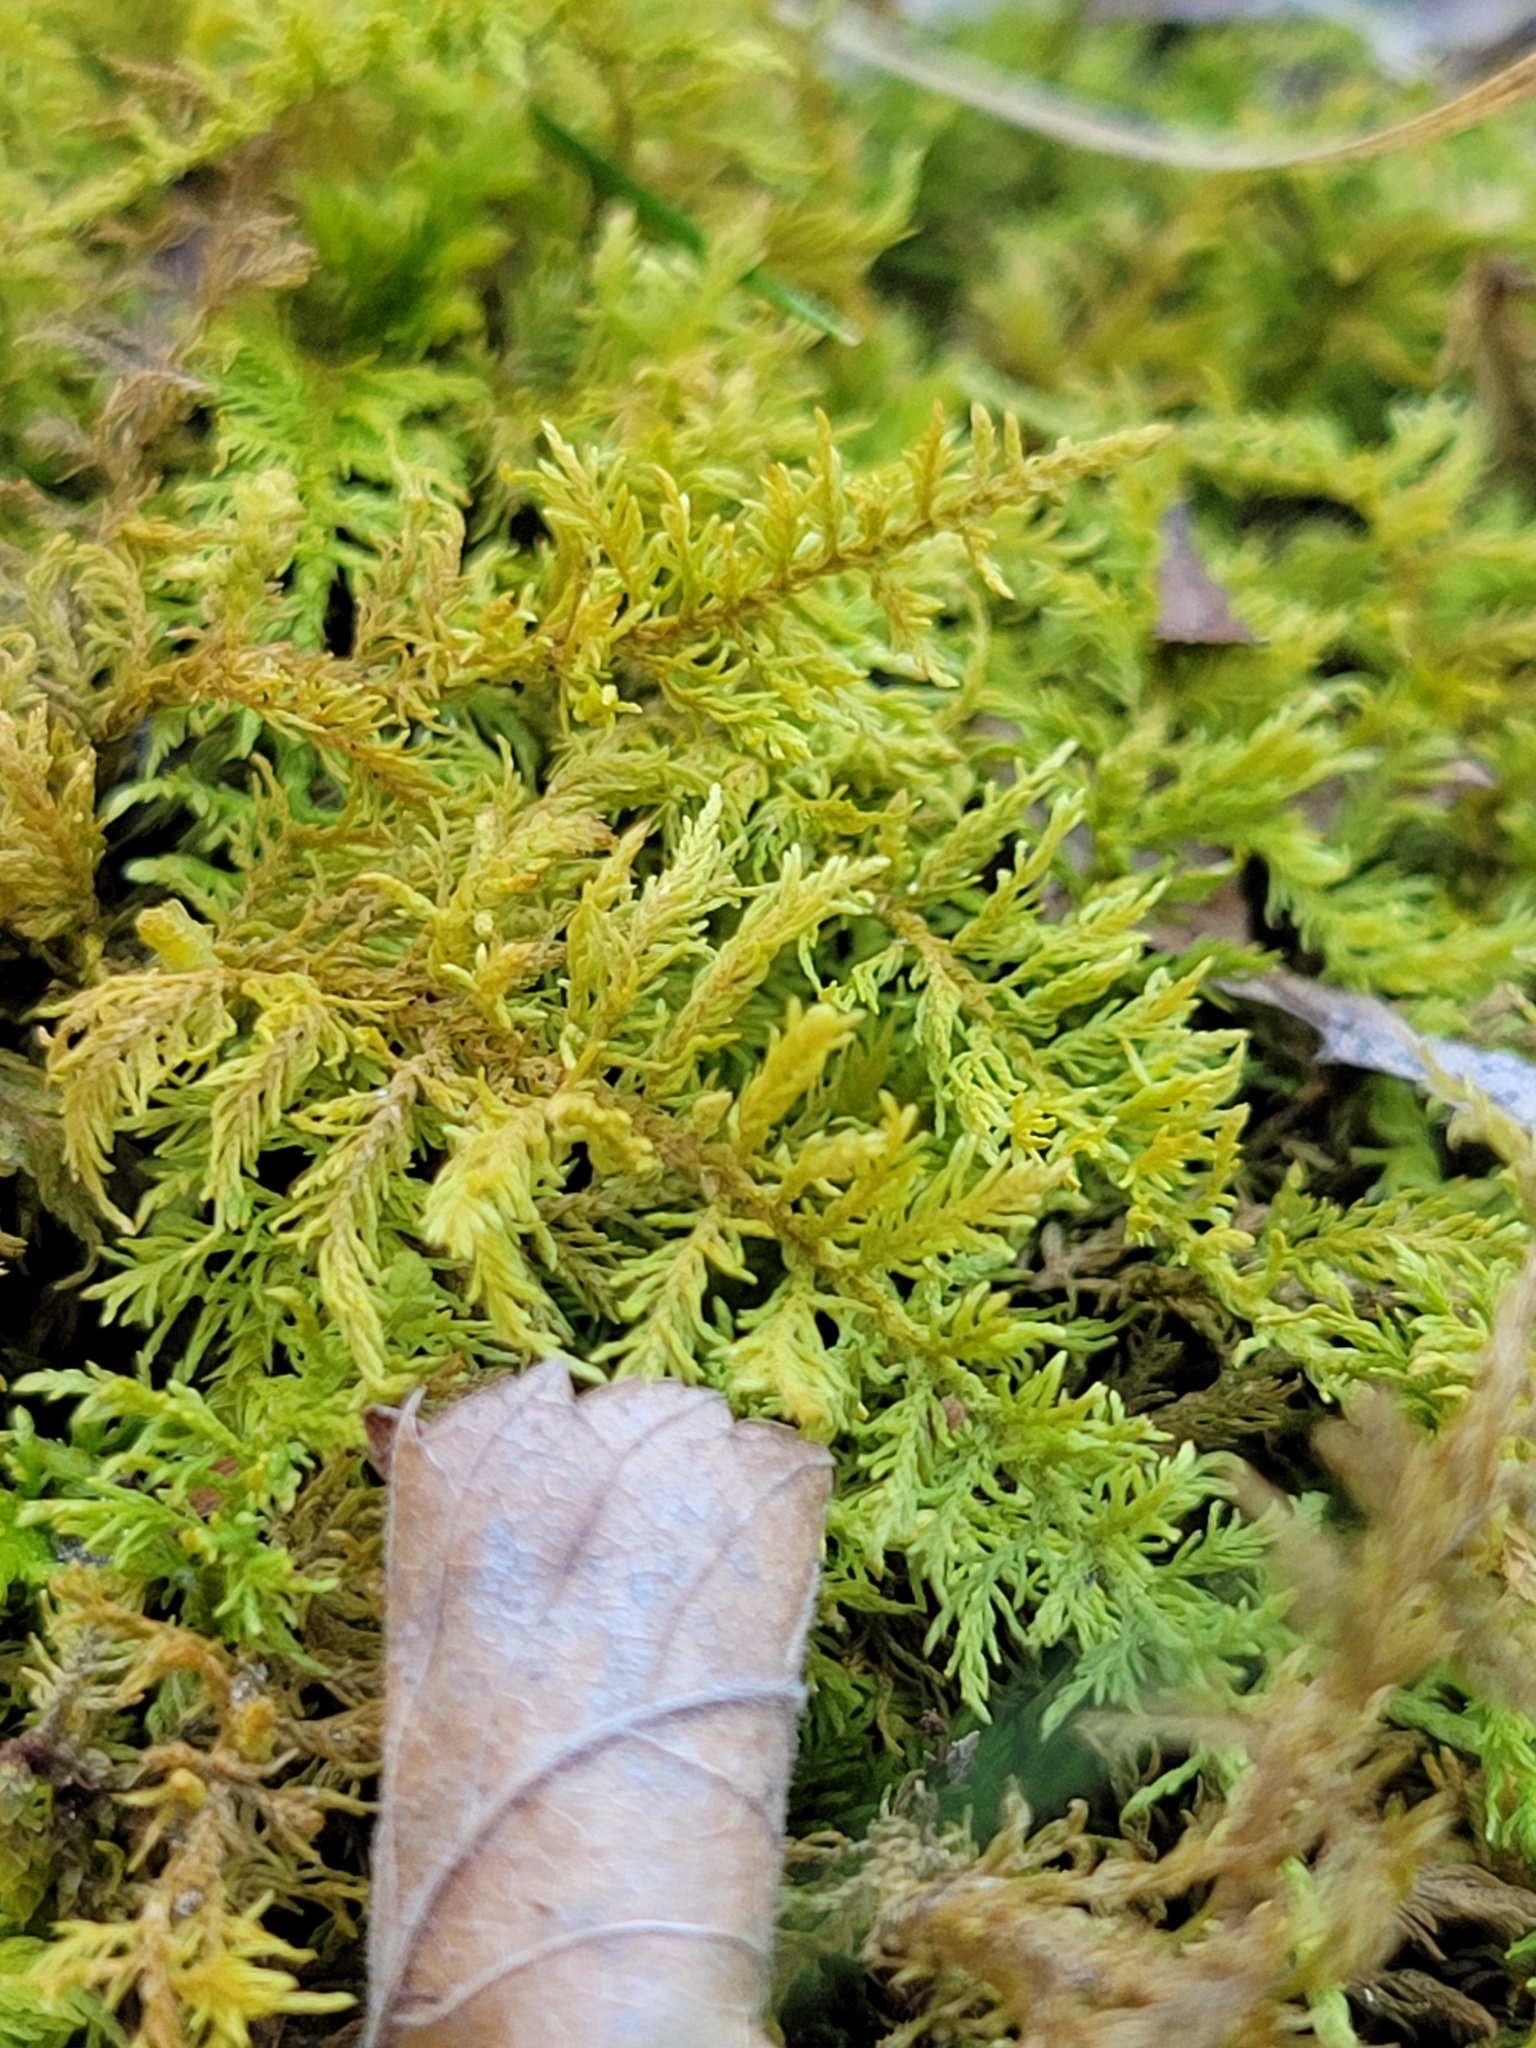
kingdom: Plantae
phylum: Bryophyta
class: Bryopsida
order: Hypnales
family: Thuidiaceae
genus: Thuidium
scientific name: Thuidium delicatulum
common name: Delicate fern moss
